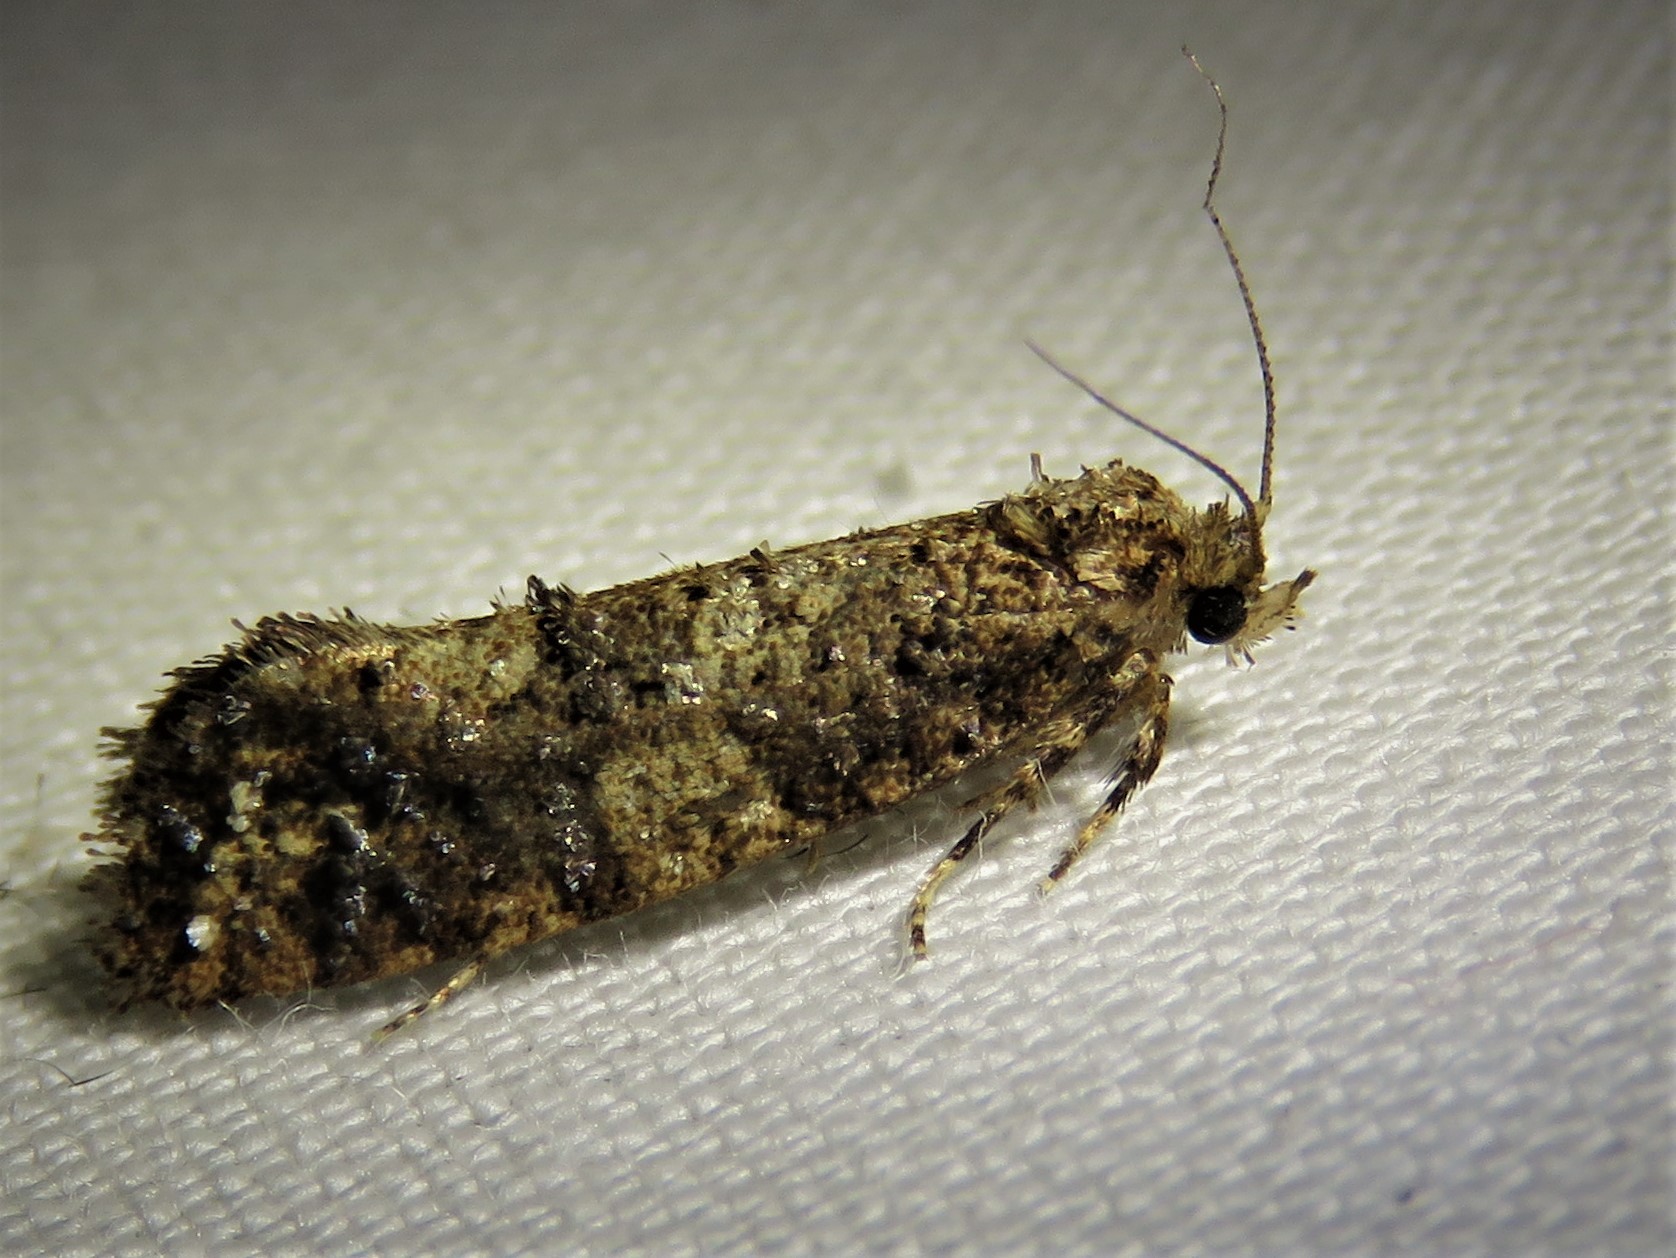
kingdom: Animalia
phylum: Arthropoda
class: Insecta
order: Lepidoptera
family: Tineidae
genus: Acrolophus
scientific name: Acrolophus cressoni
